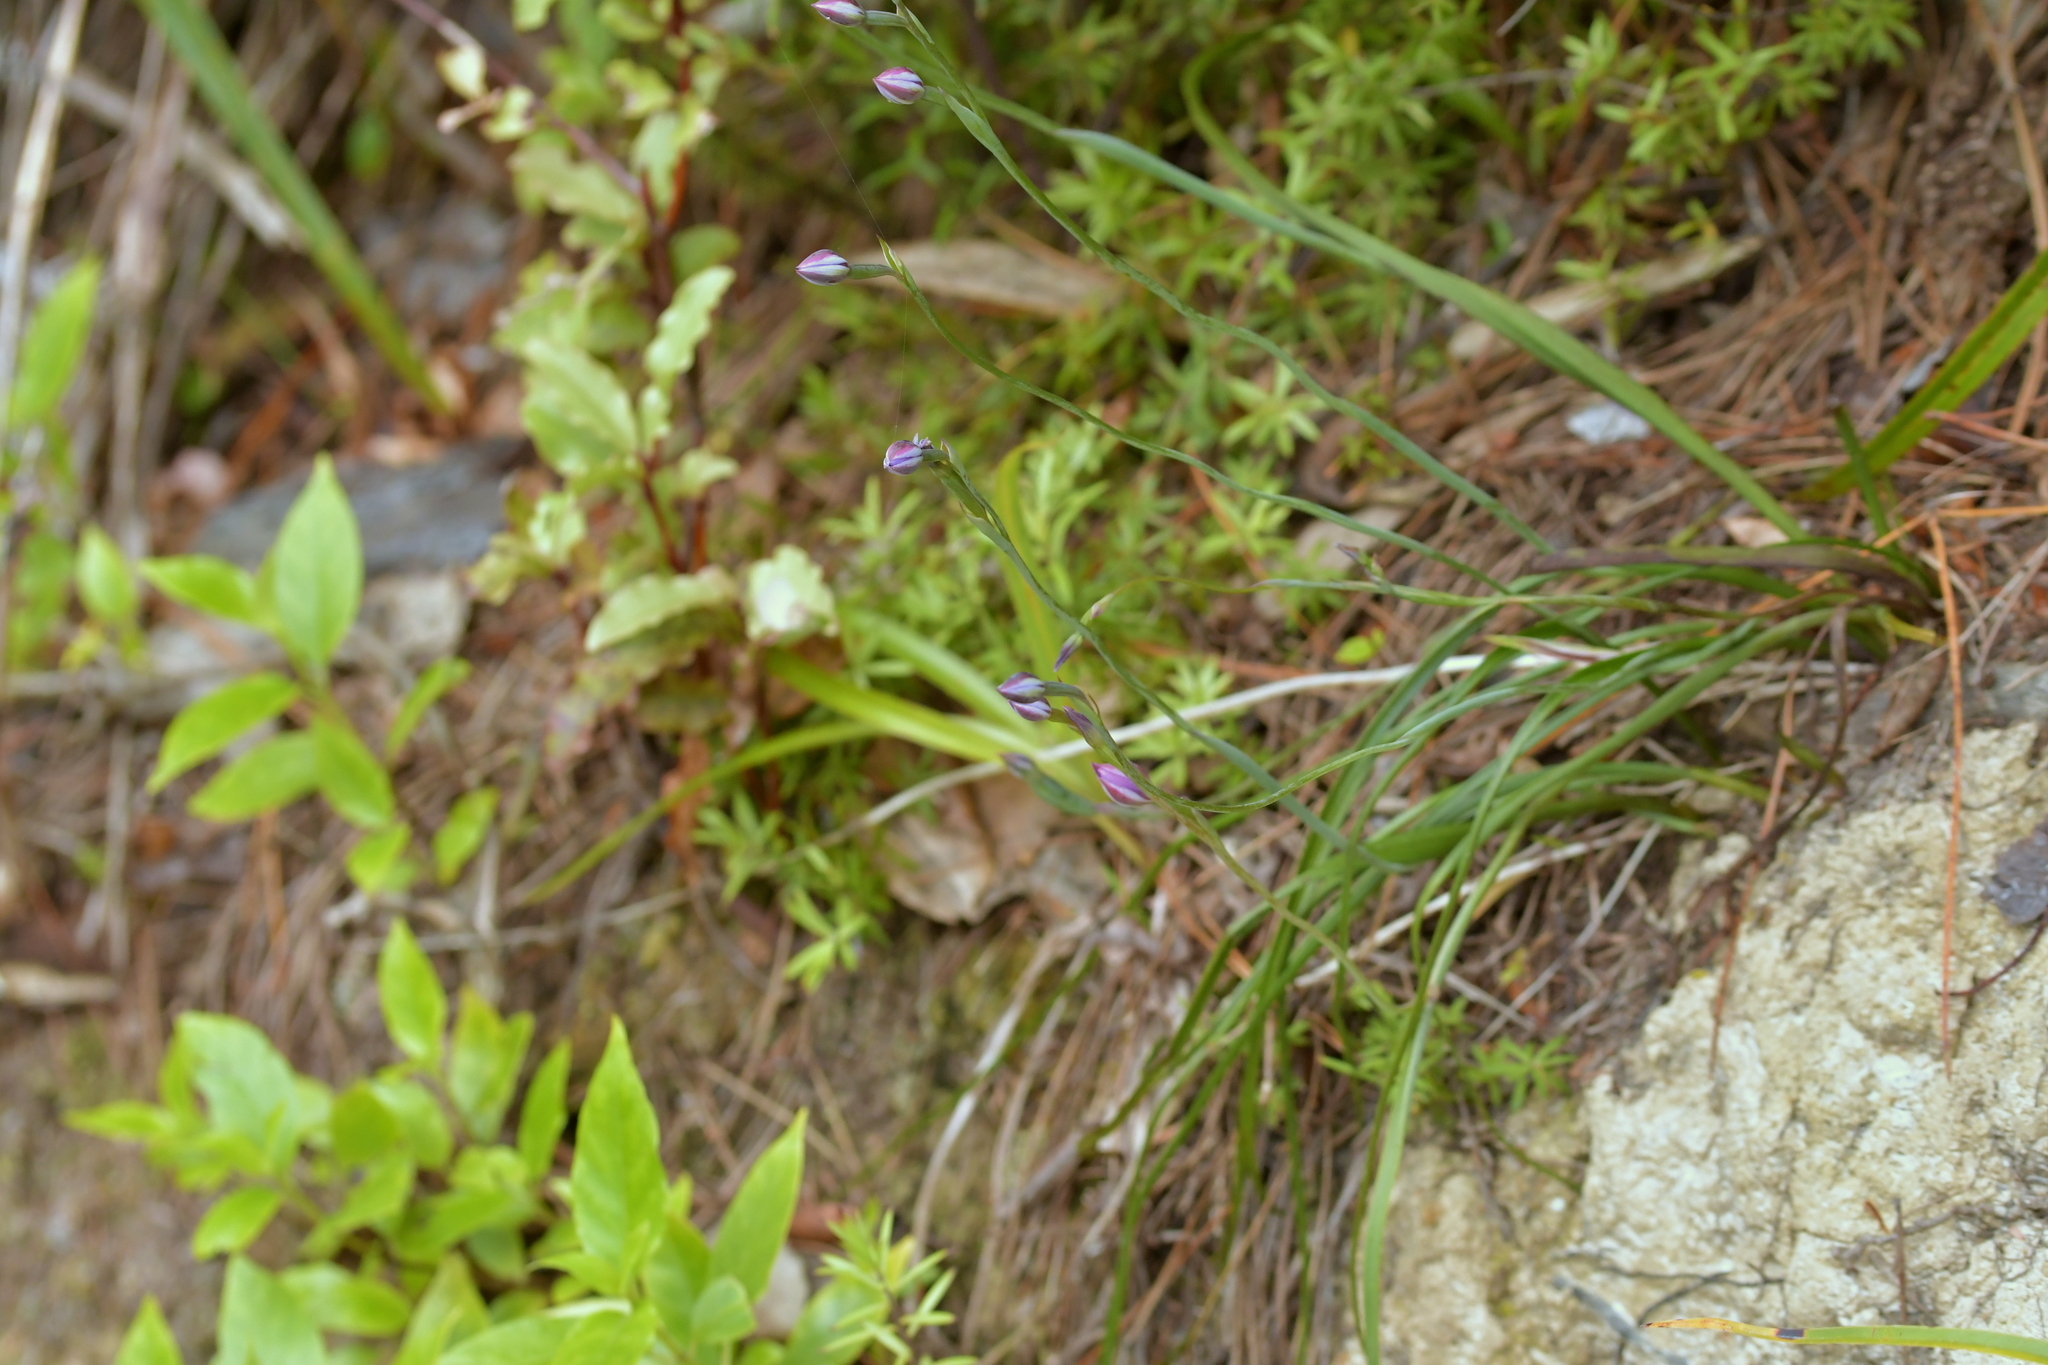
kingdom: Plantae
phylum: Tracheophyta
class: Liliopsida
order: Asparagales
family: Orchidaceae
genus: Thelymitra
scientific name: Thelymitra nervosa
